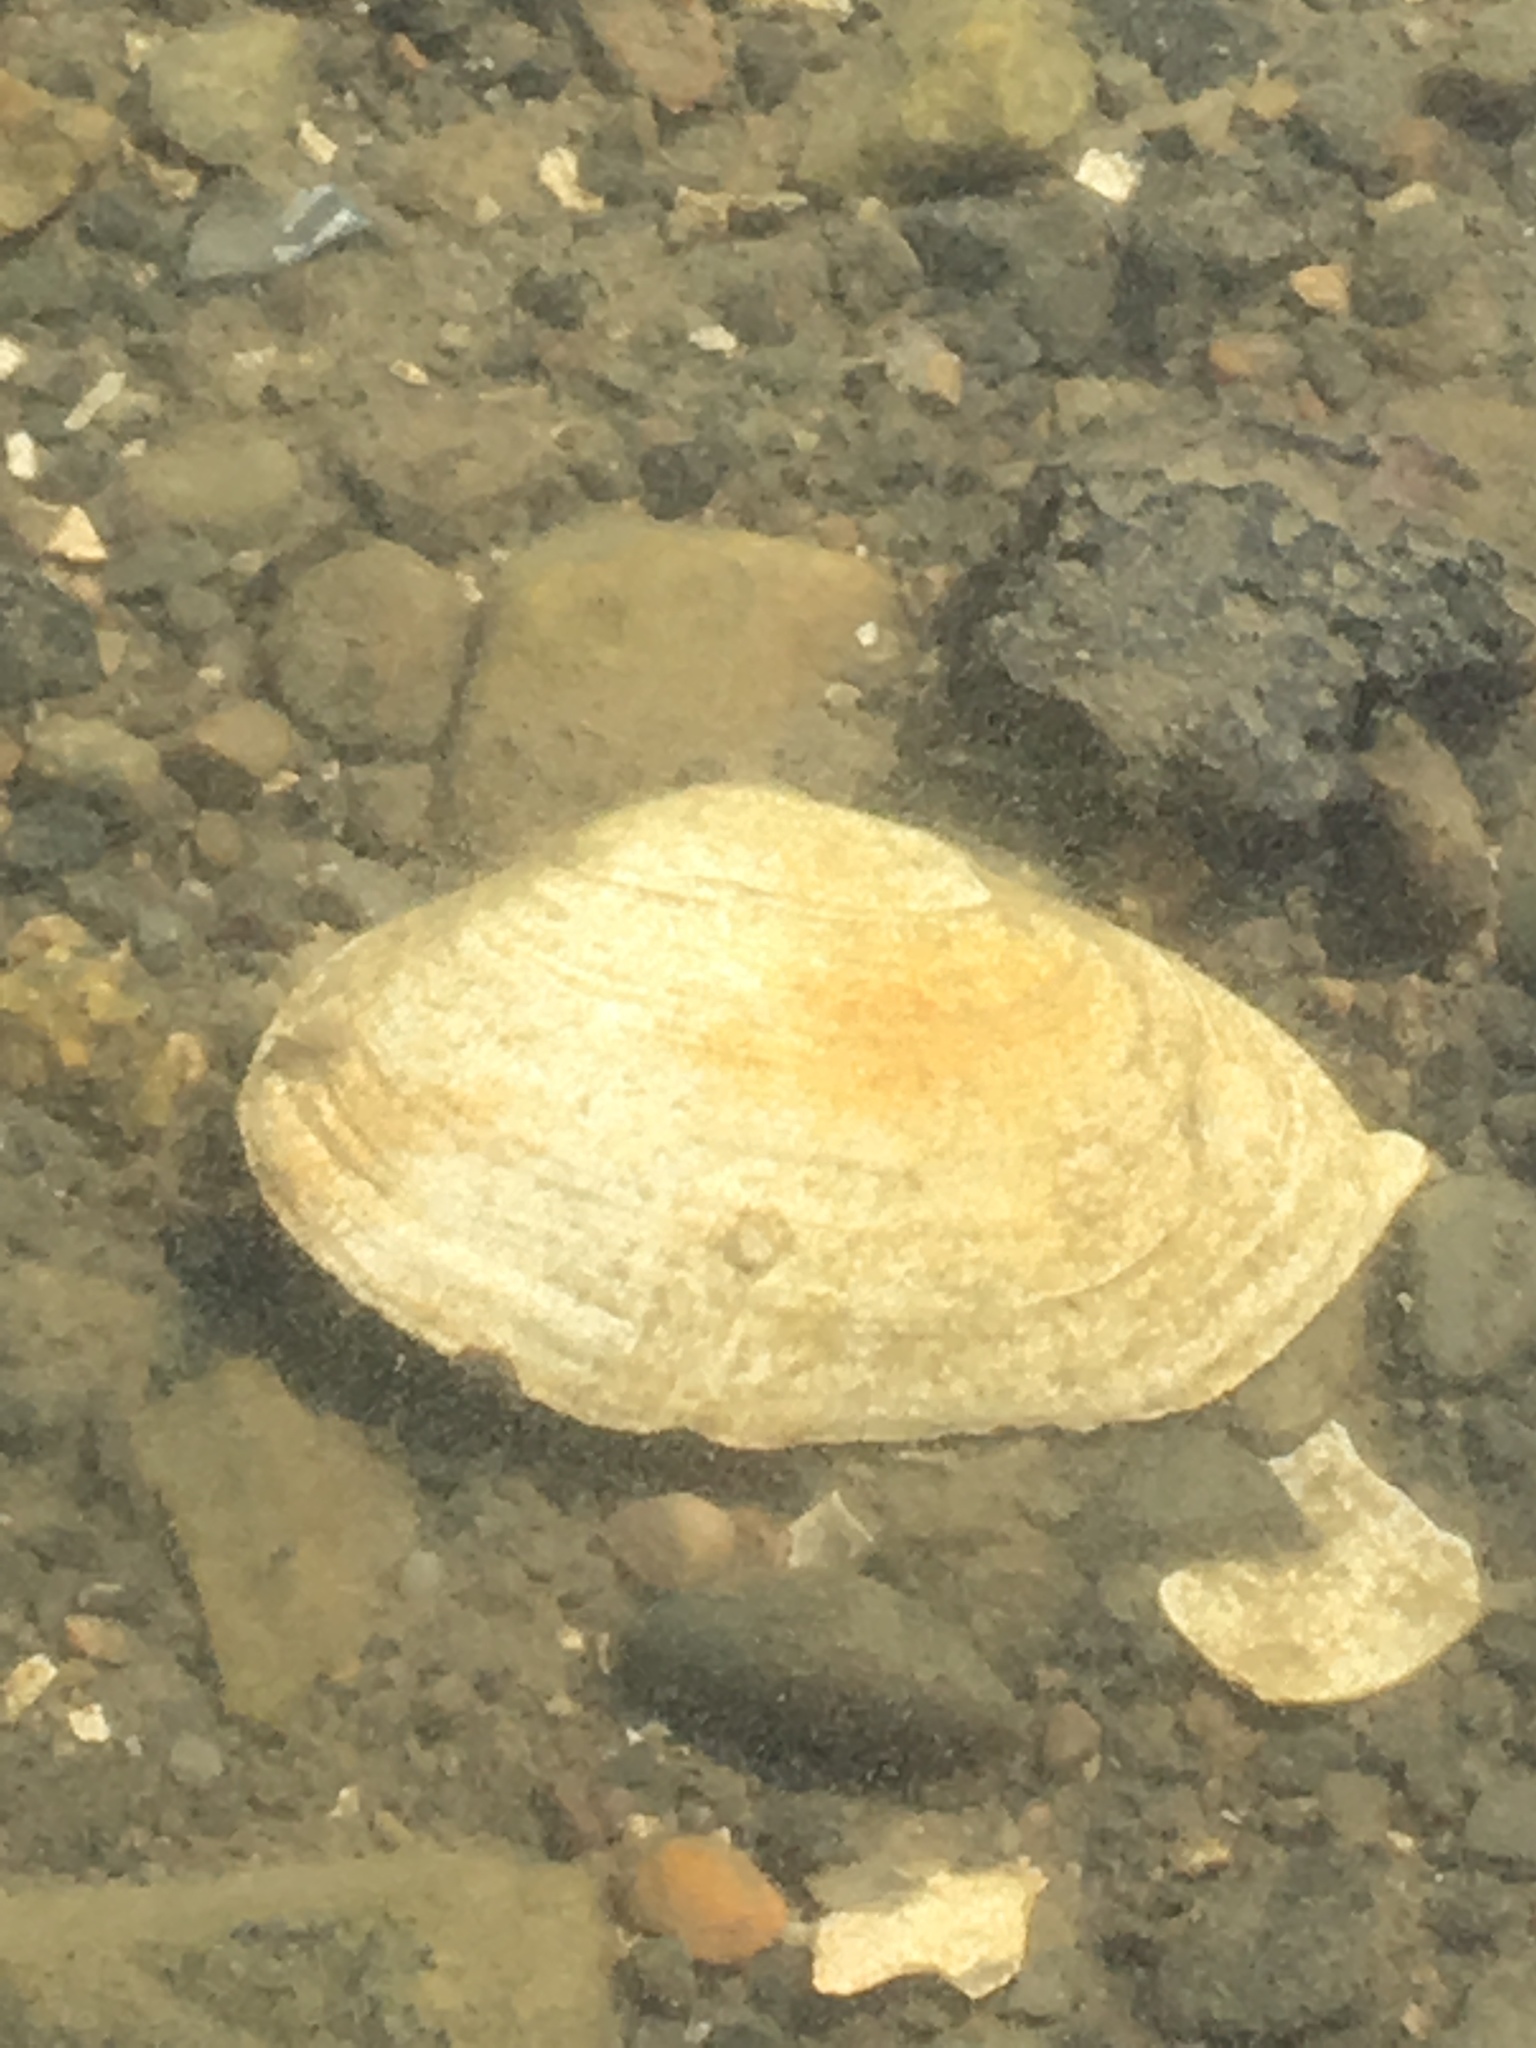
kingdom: Animalia
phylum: Mollusca
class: Bivalvia
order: Myida
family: Myidae
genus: Mya
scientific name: Mya arenaria
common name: Soft-shelled clam
